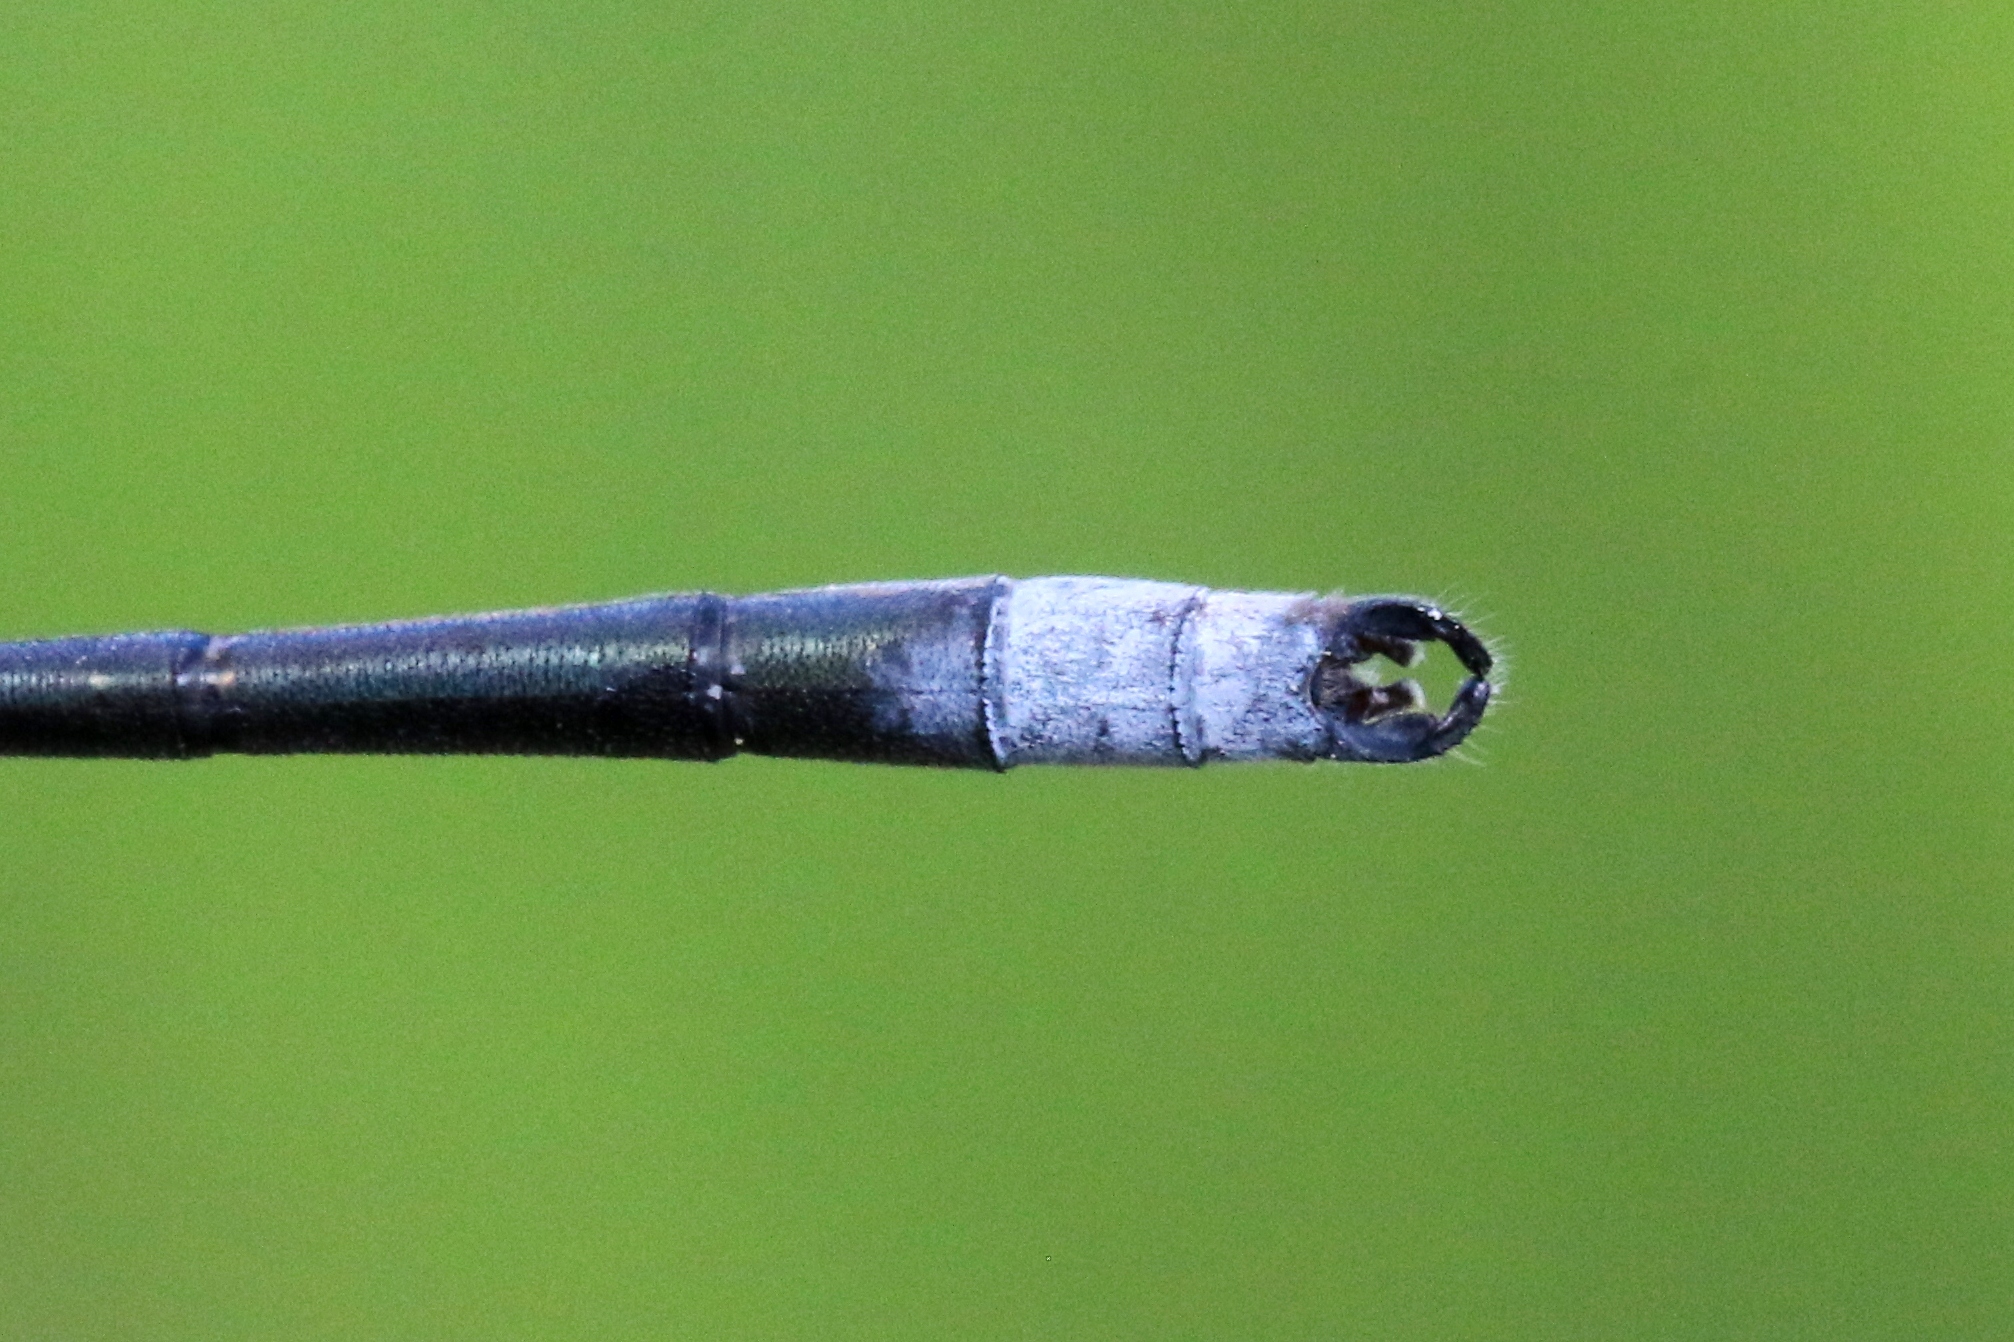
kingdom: Animalia
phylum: Arthropoda
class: Insecta
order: Odonata
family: Lestidae
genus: Lestes
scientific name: Lestes congener
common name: Spotted spreadwing
